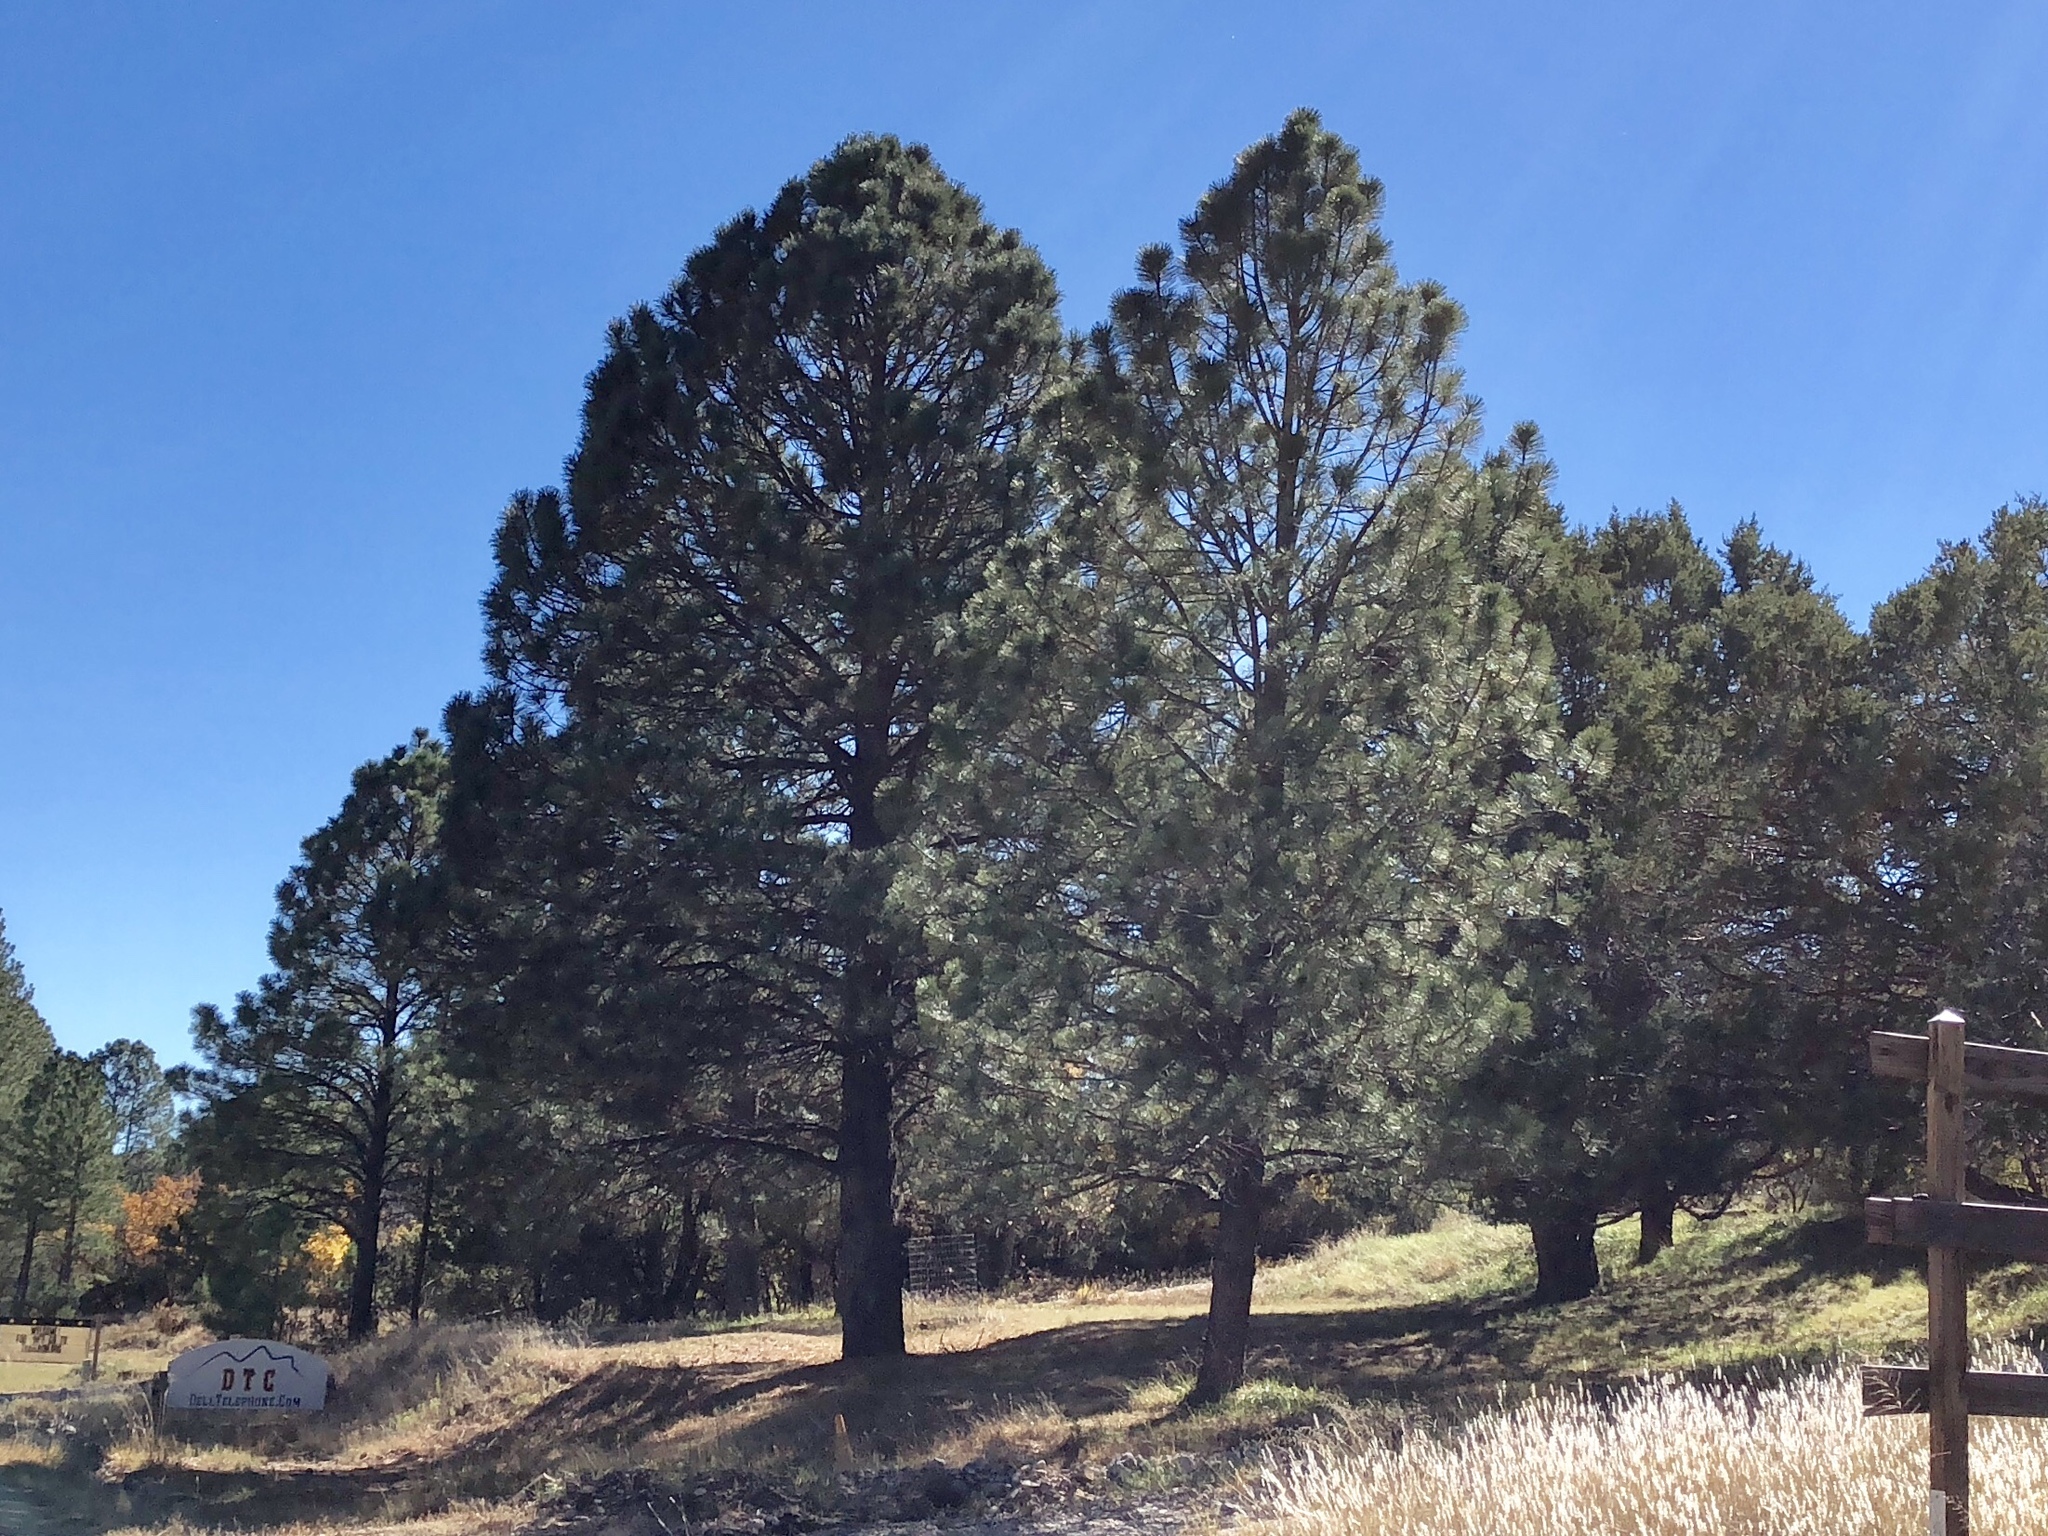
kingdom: Plantae
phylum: Tracheophyta
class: Pinopsida
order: Pinales
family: Pinaceae
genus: Pinus
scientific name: Pinus ponderosa
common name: Western yellow-pine
